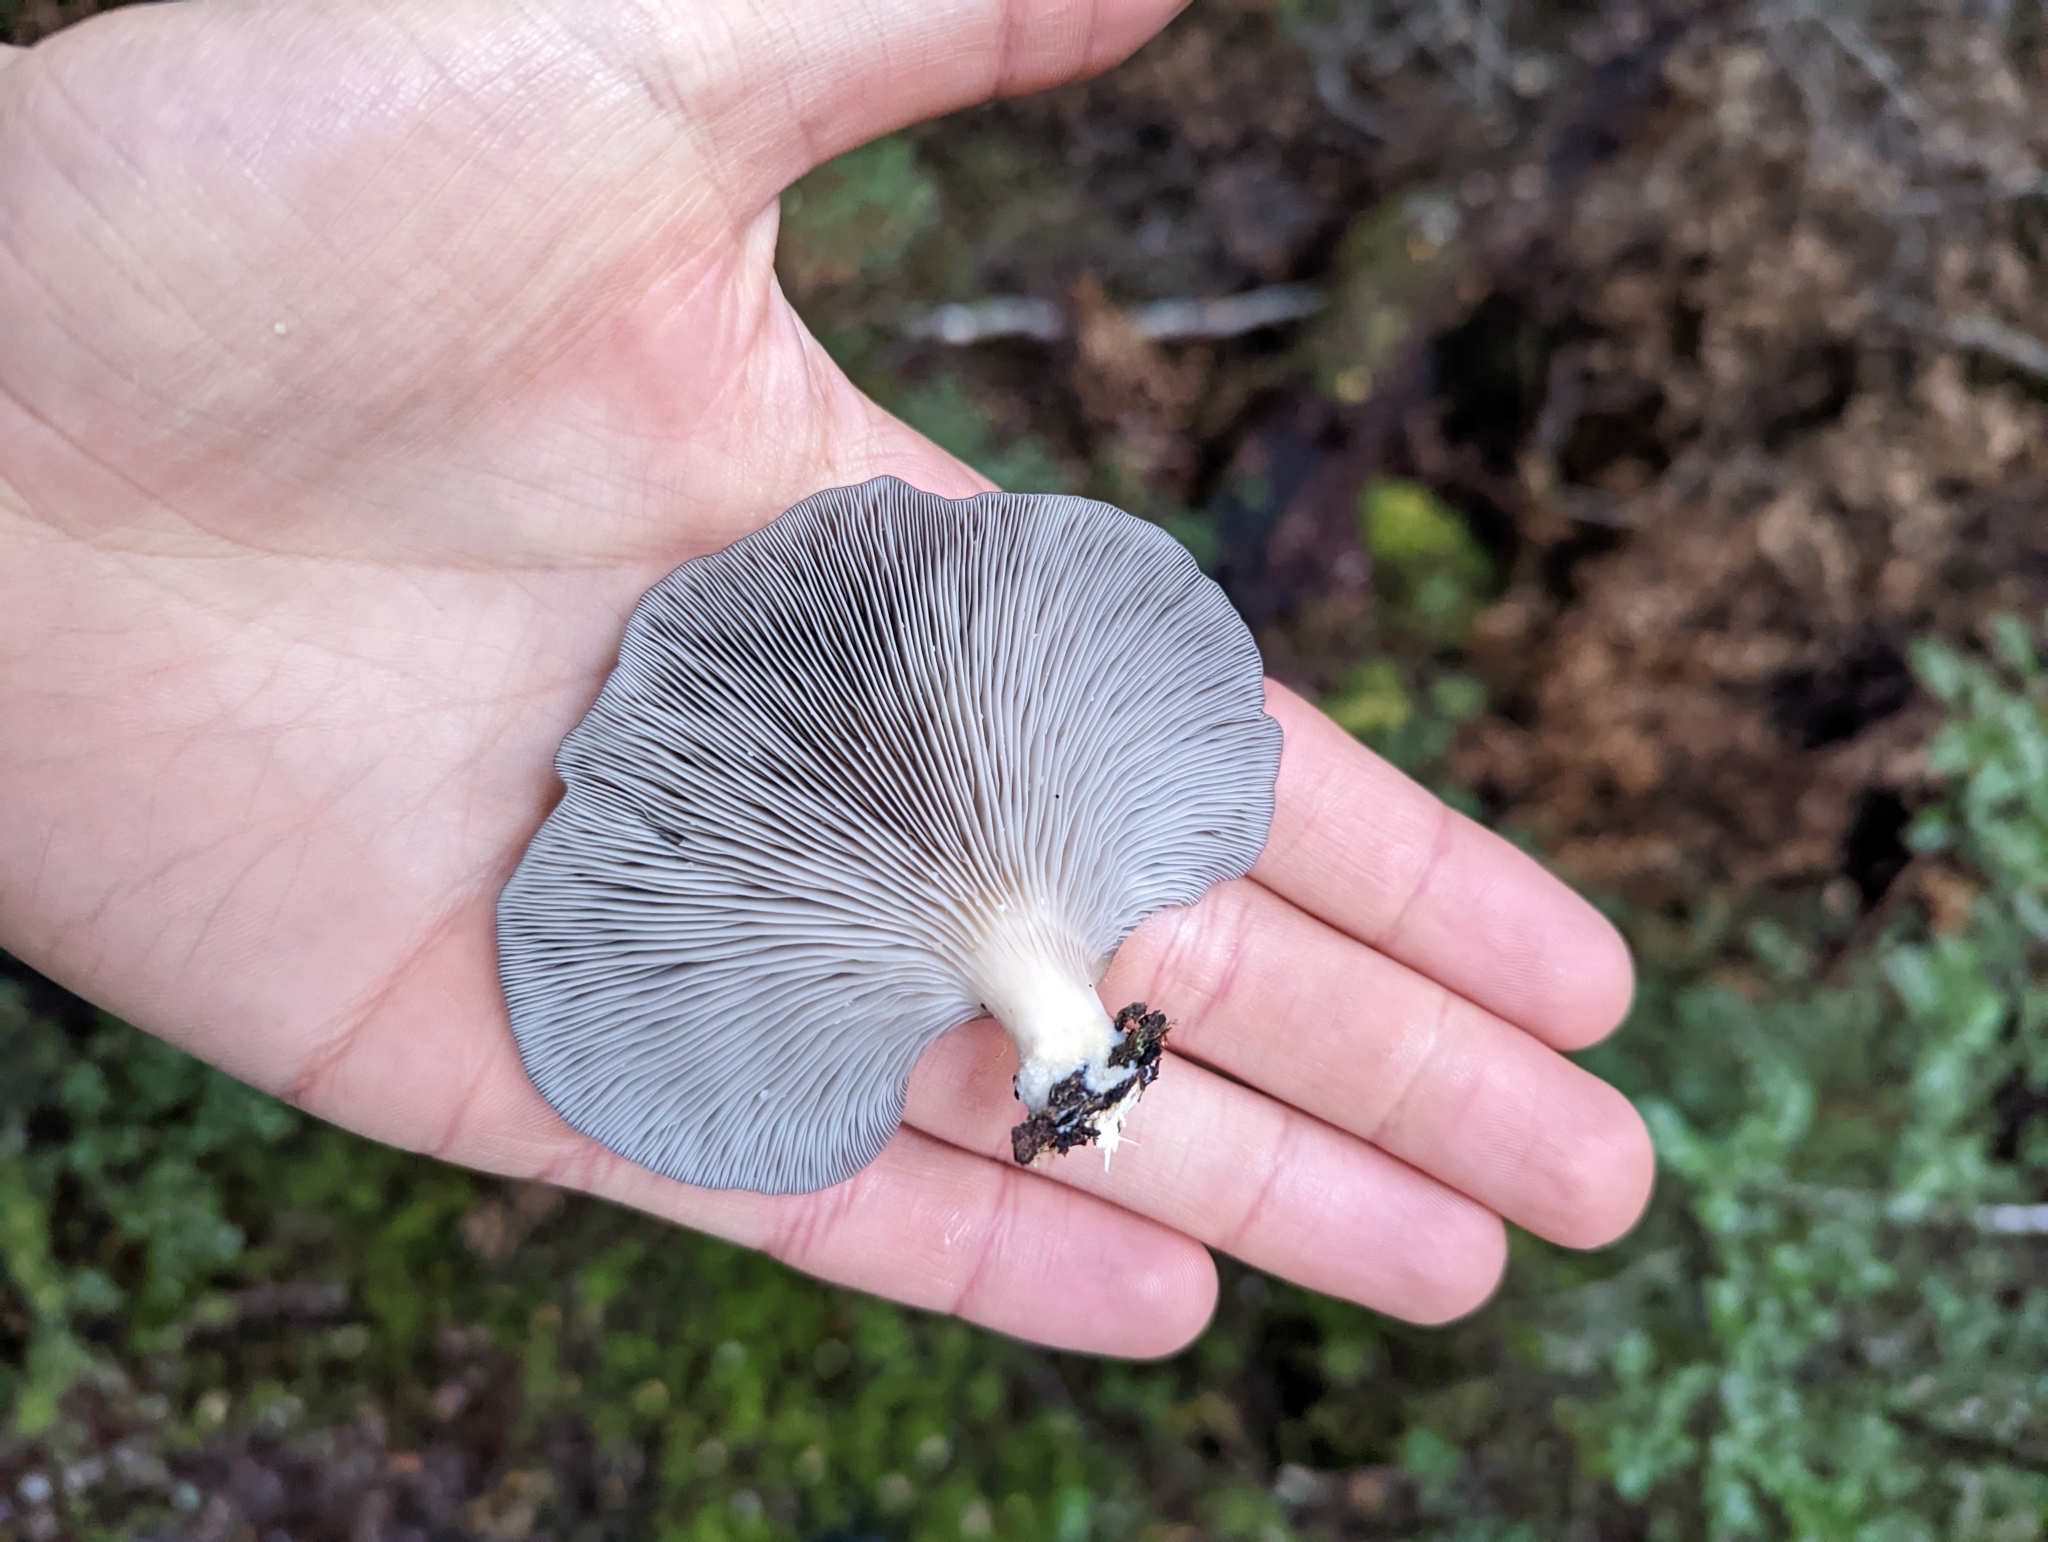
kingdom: Fungi
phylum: Basidiomycota
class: Agaricomycetes
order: Agaricales
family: Pleurotaceae
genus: Pleurotus
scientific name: Pleurotus purpureo-olivaceus
